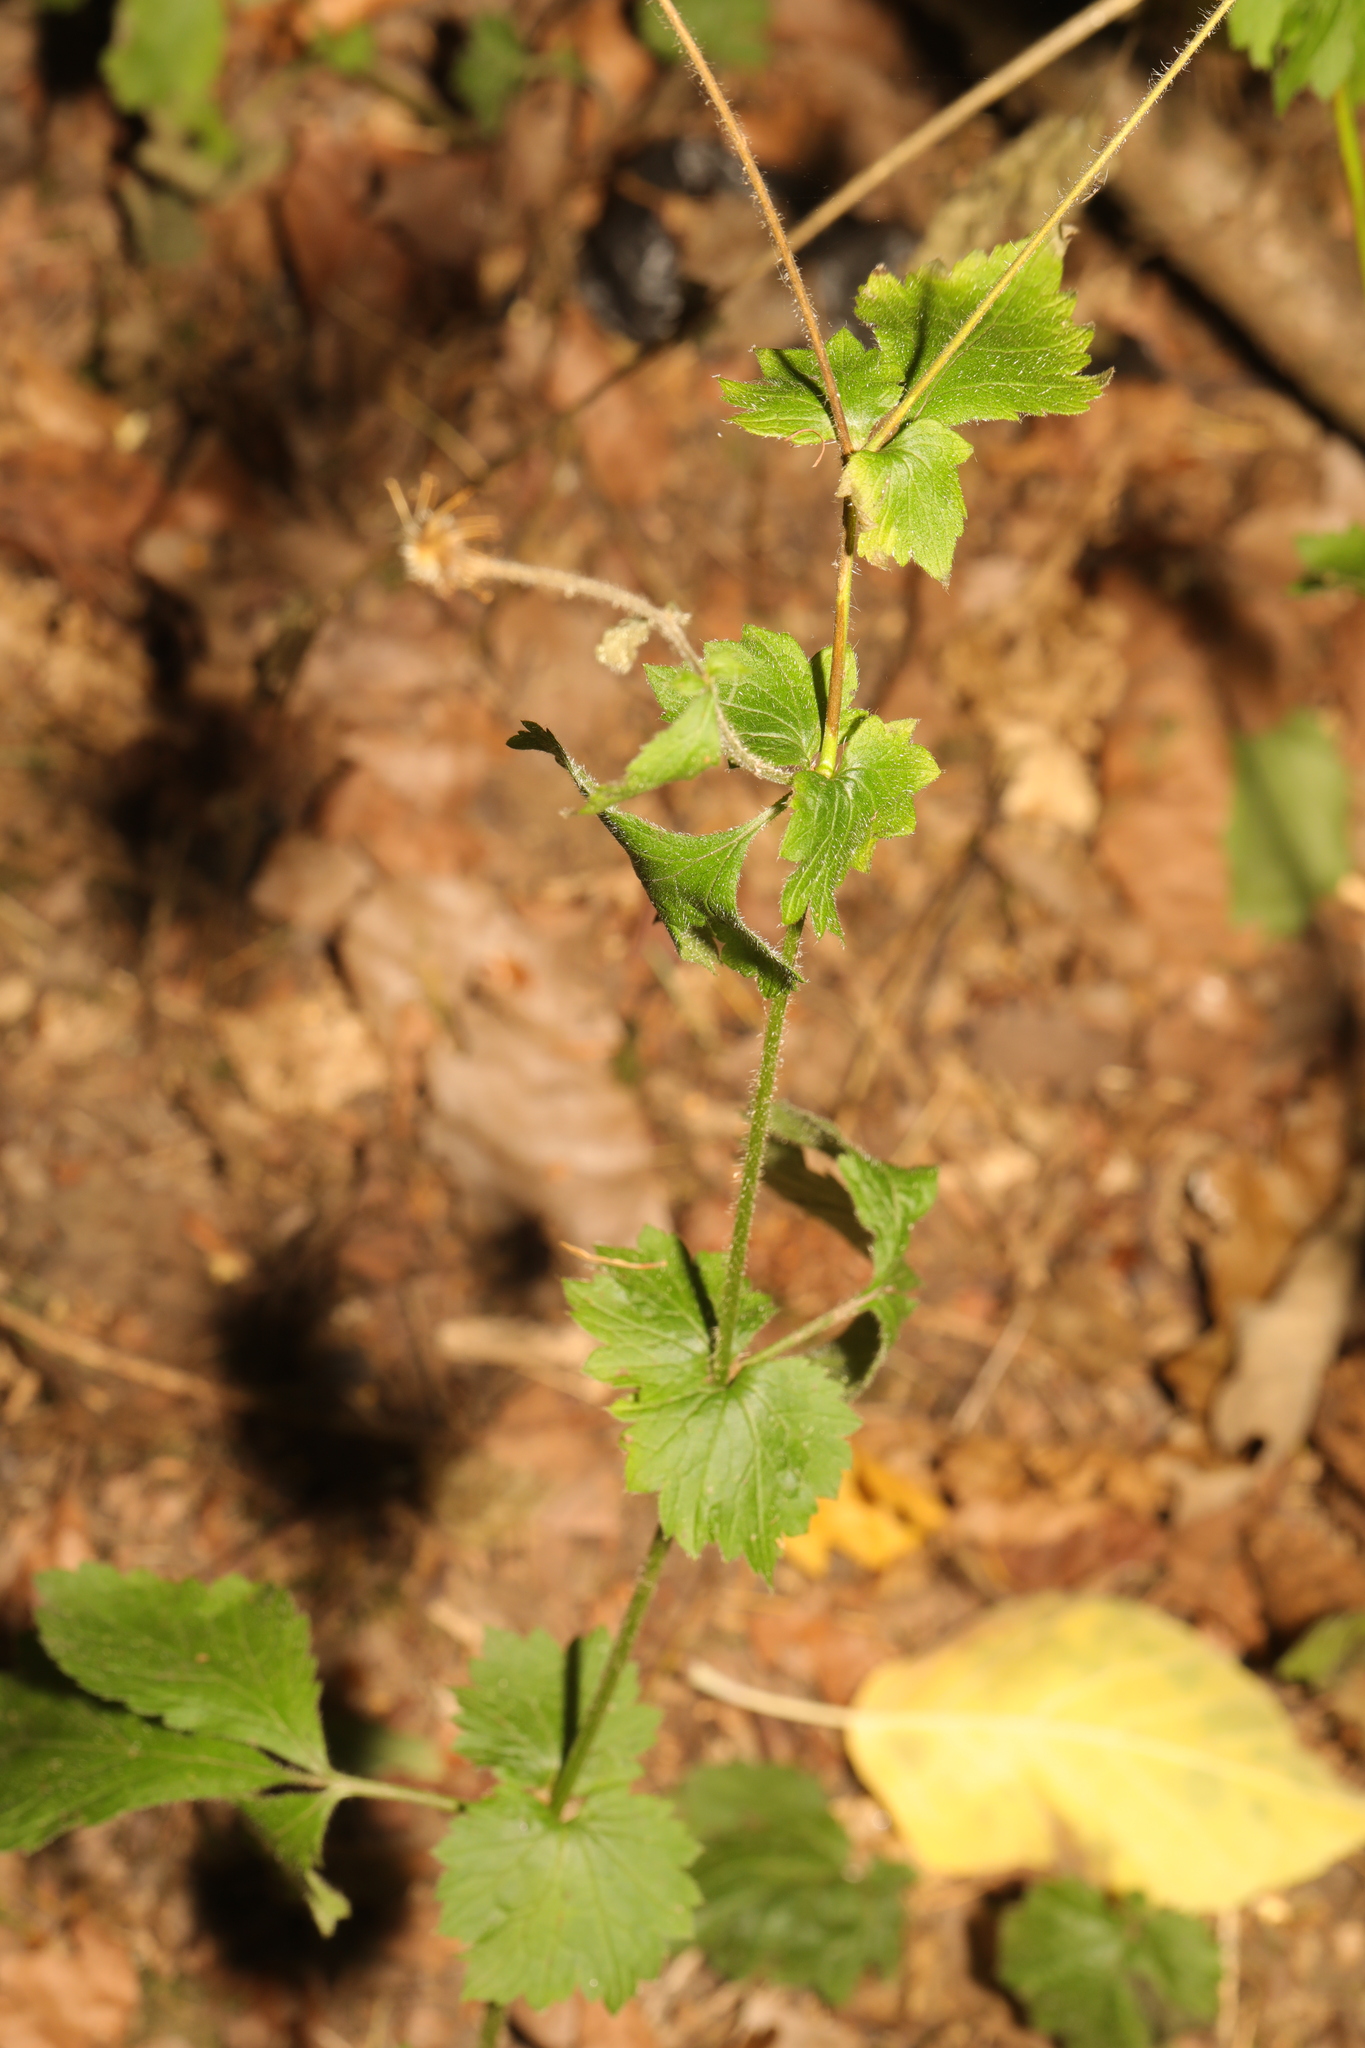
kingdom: Plantae
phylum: Tracheophyta
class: Magnoliopsida
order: Rosales
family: Rosaceae
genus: Geum
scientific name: Geum urbanum
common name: Wood avens
